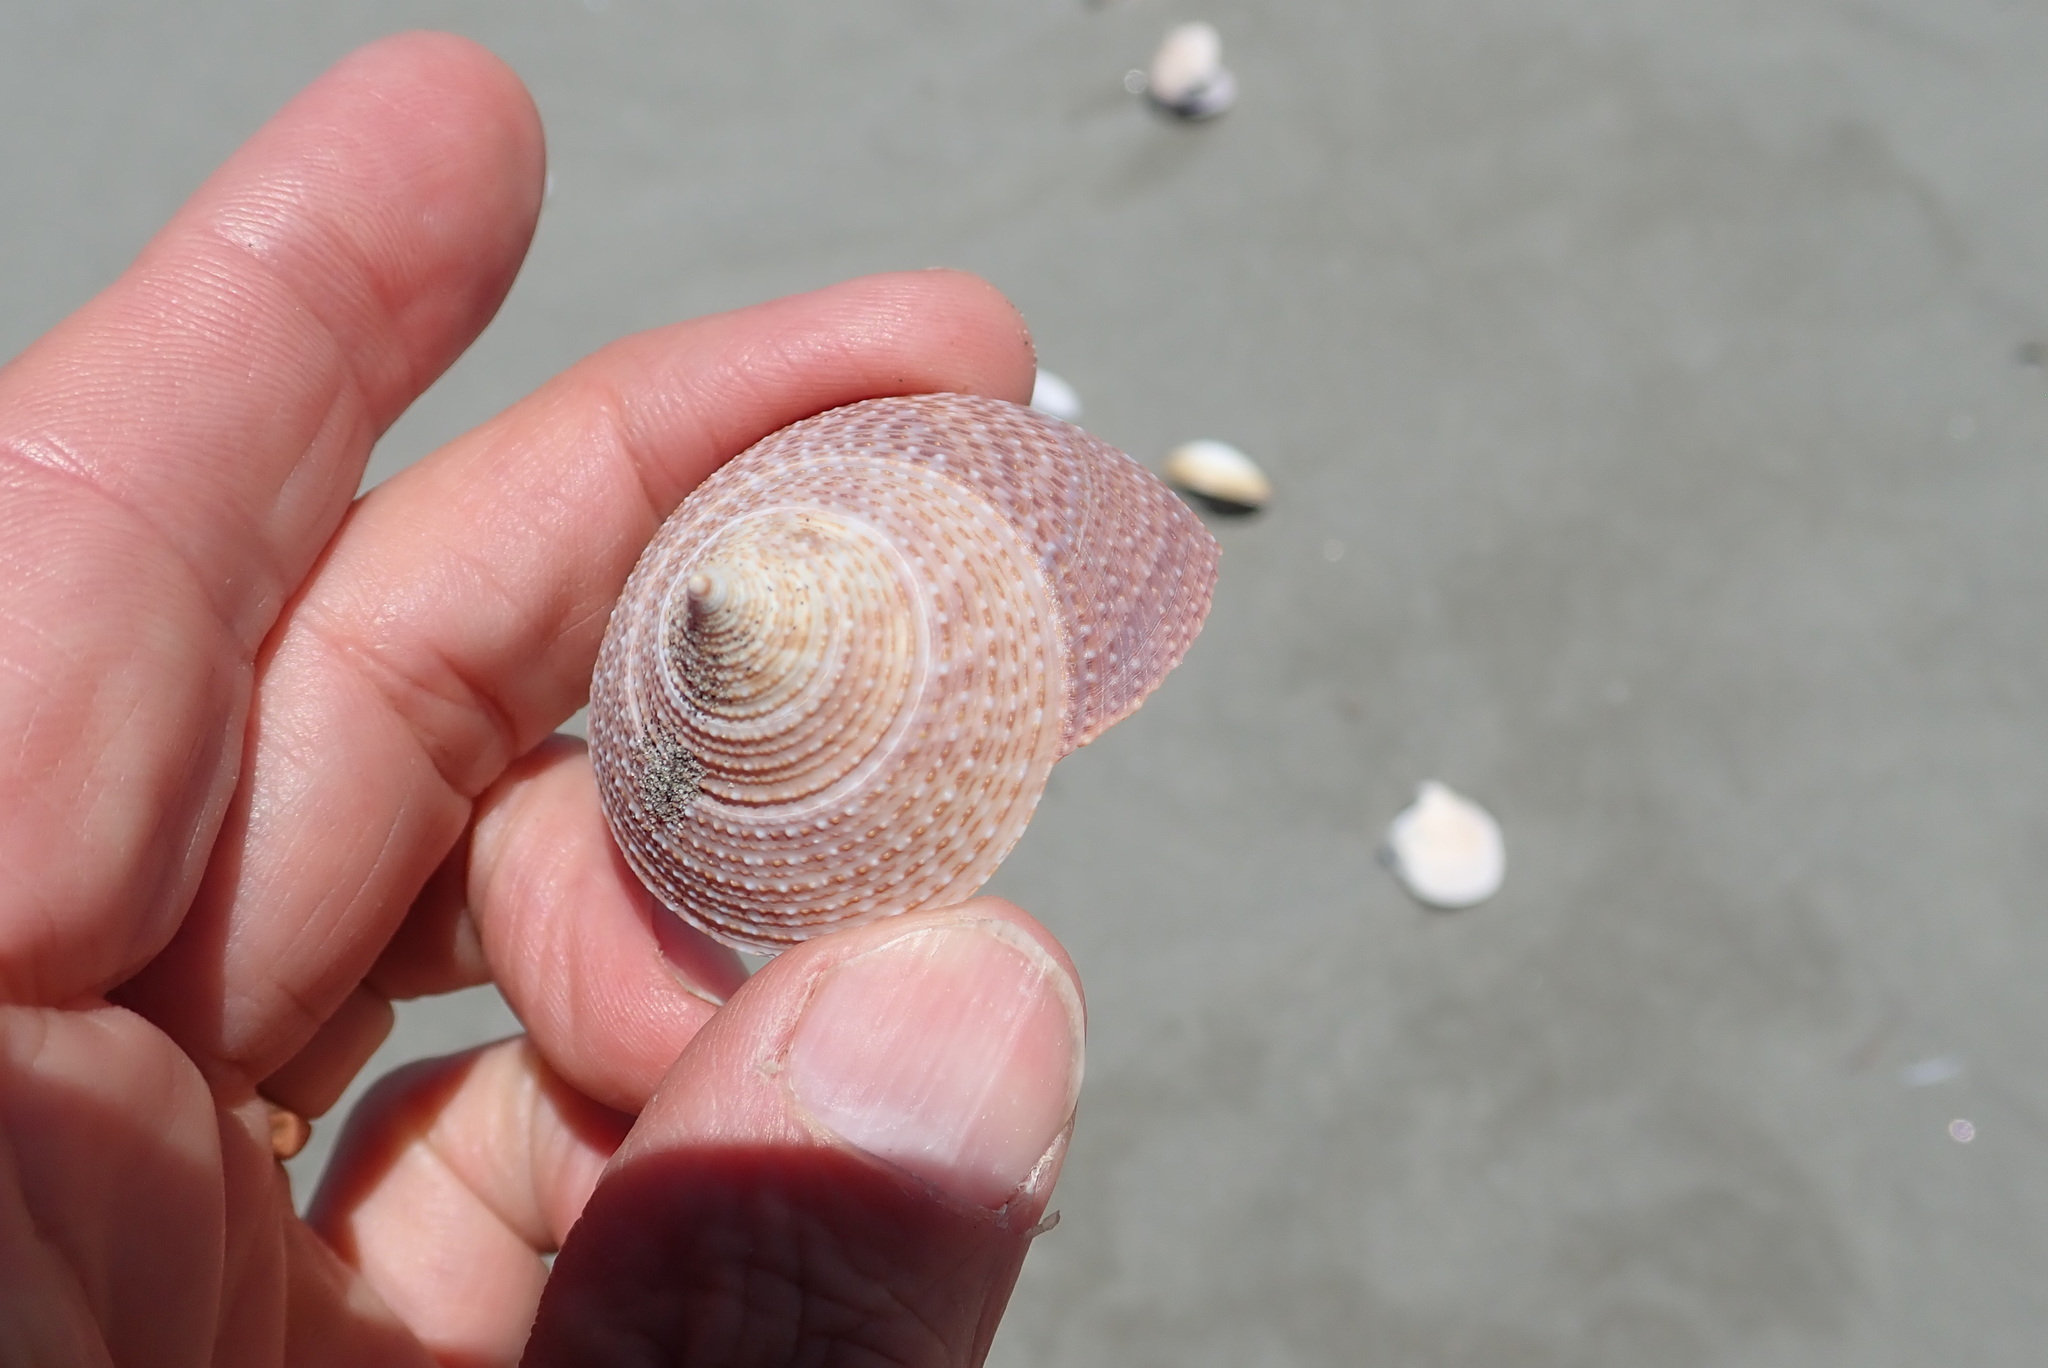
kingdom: Animalia
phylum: Mollusca
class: Gastropoda
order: Trochida
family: Calliostomatidae
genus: Maurea
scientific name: Maurea selecta
